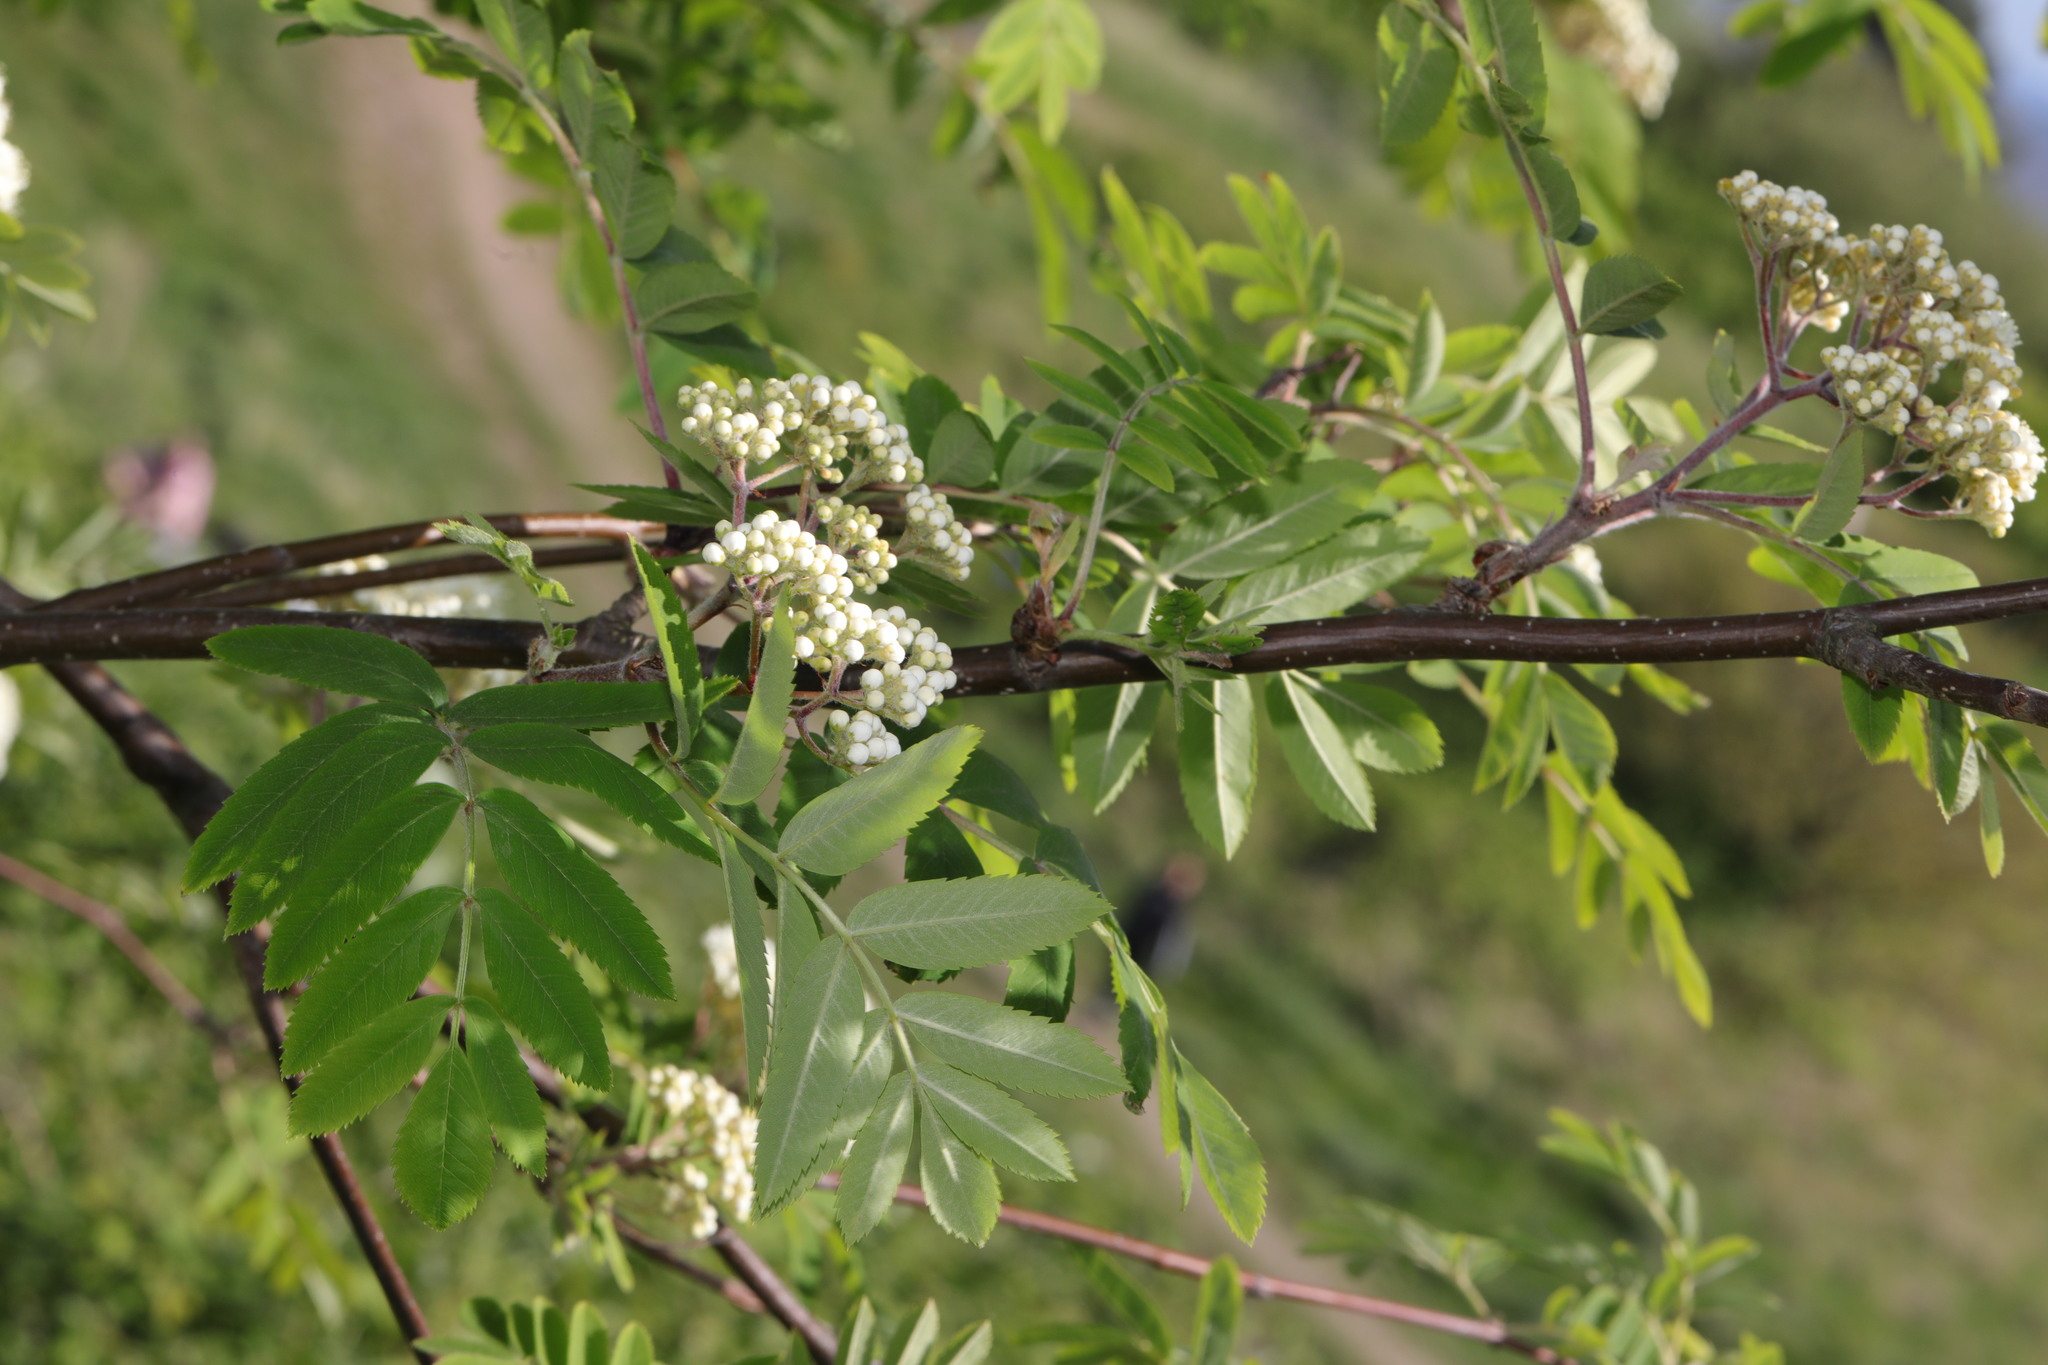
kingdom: Plantae
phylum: Tracheophyta
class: Magnoliopsida
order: Rosales
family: Rosaceae
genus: Sorbus
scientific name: Sorbus aucuparia
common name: Rowan
